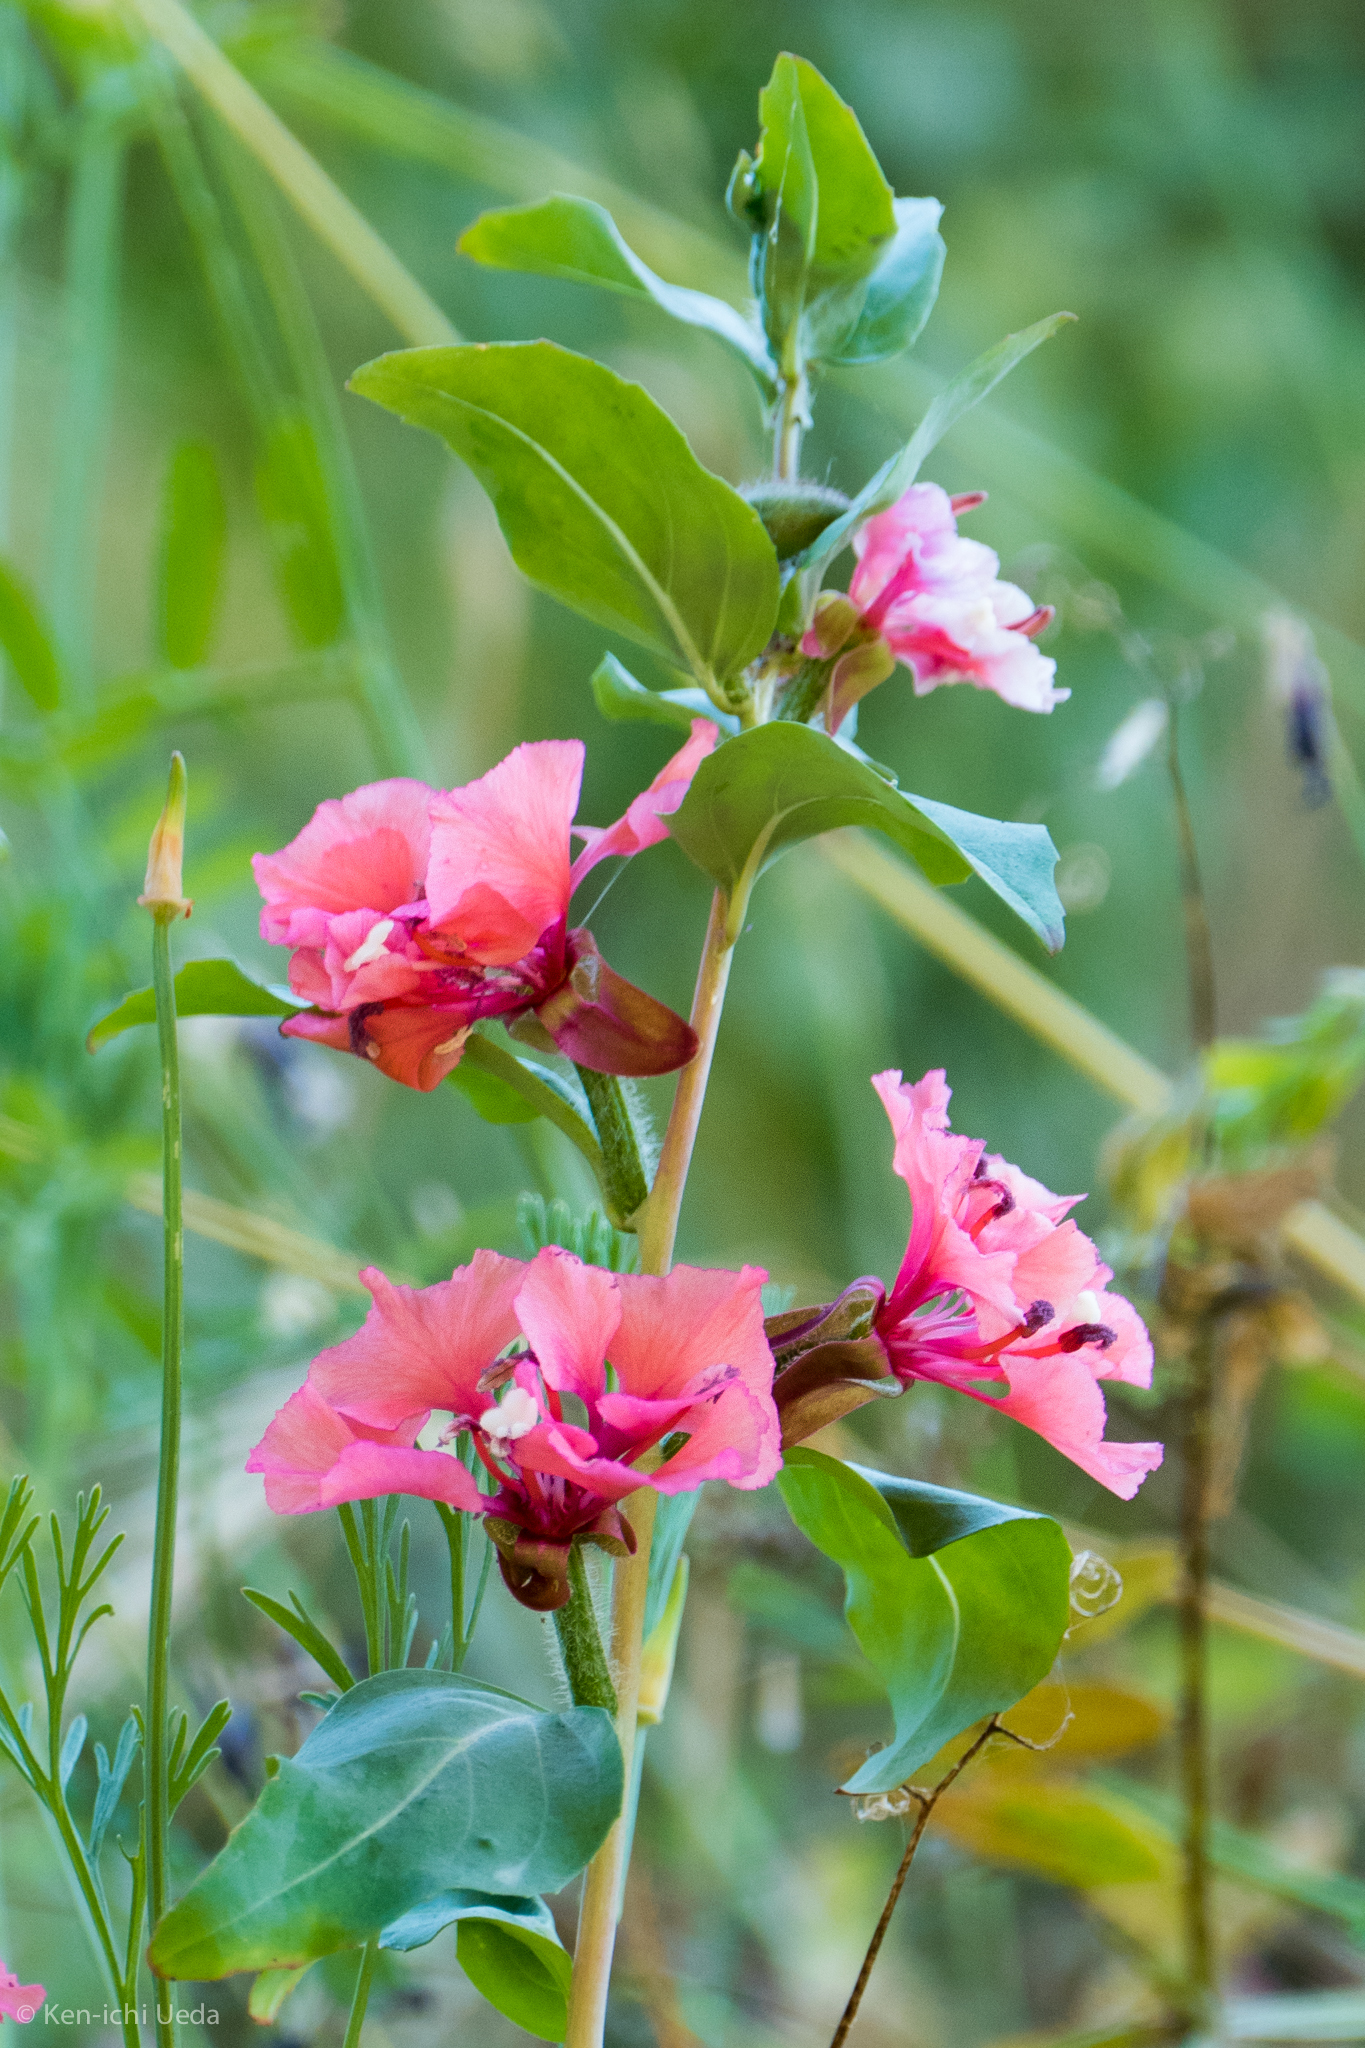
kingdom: Plantae
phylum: Tracheophyta
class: Magnoliopsida
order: Myrtales
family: Onagraceae
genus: Clarkia
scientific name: Clarkia unguiculata
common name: Clarkia
